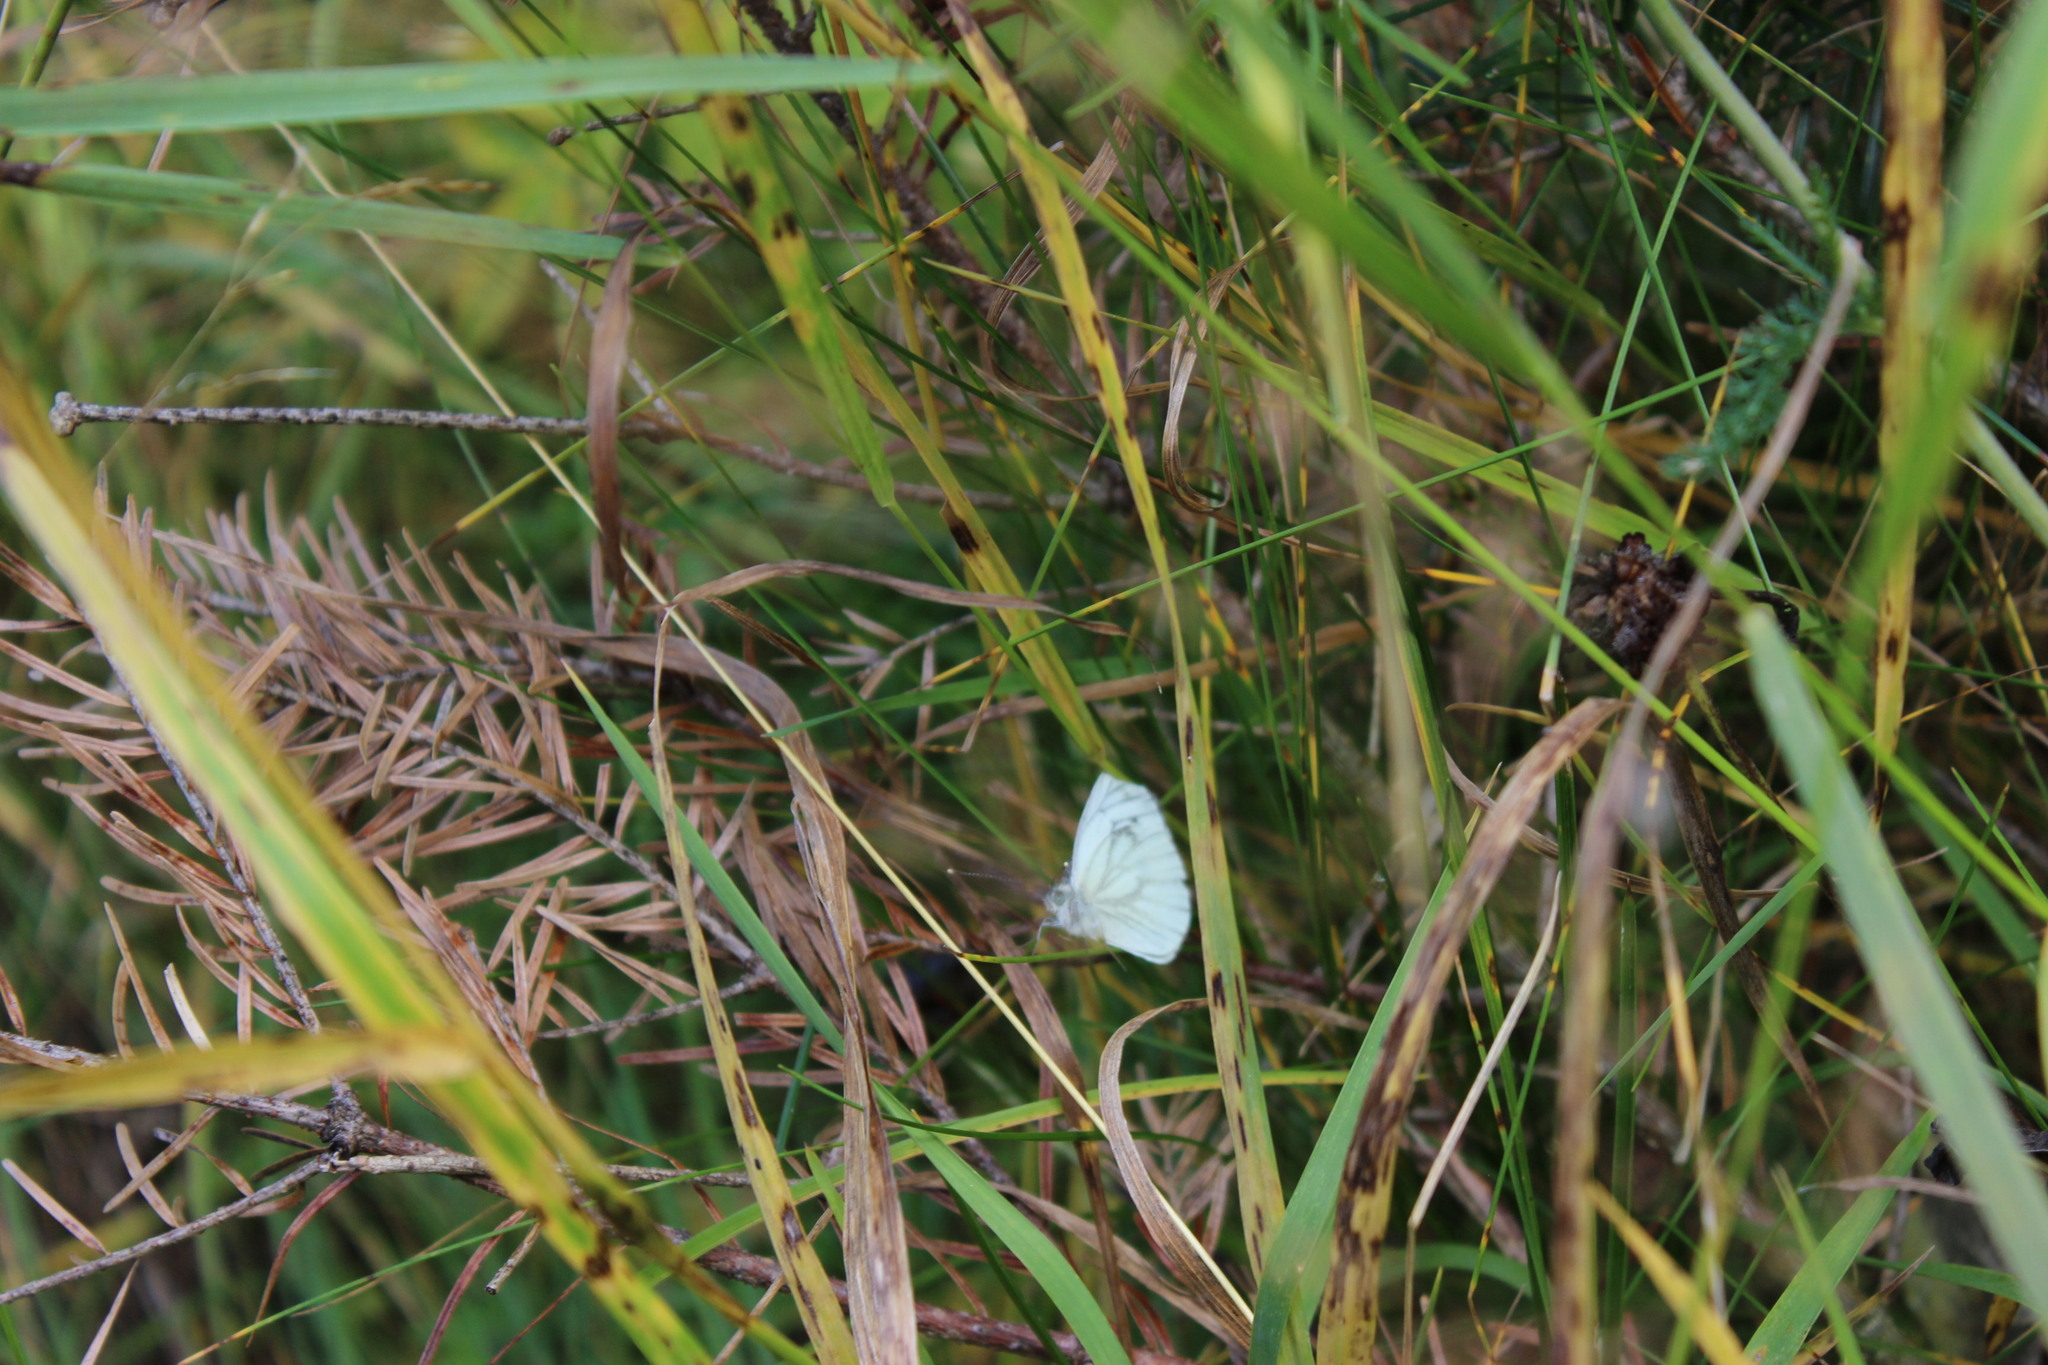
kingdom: Animalia
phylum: Arthropoda
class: Insecta
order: Lepidoptera
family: Pieridae
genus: Pieris
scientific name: Pieris napi
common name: Green-veined white
